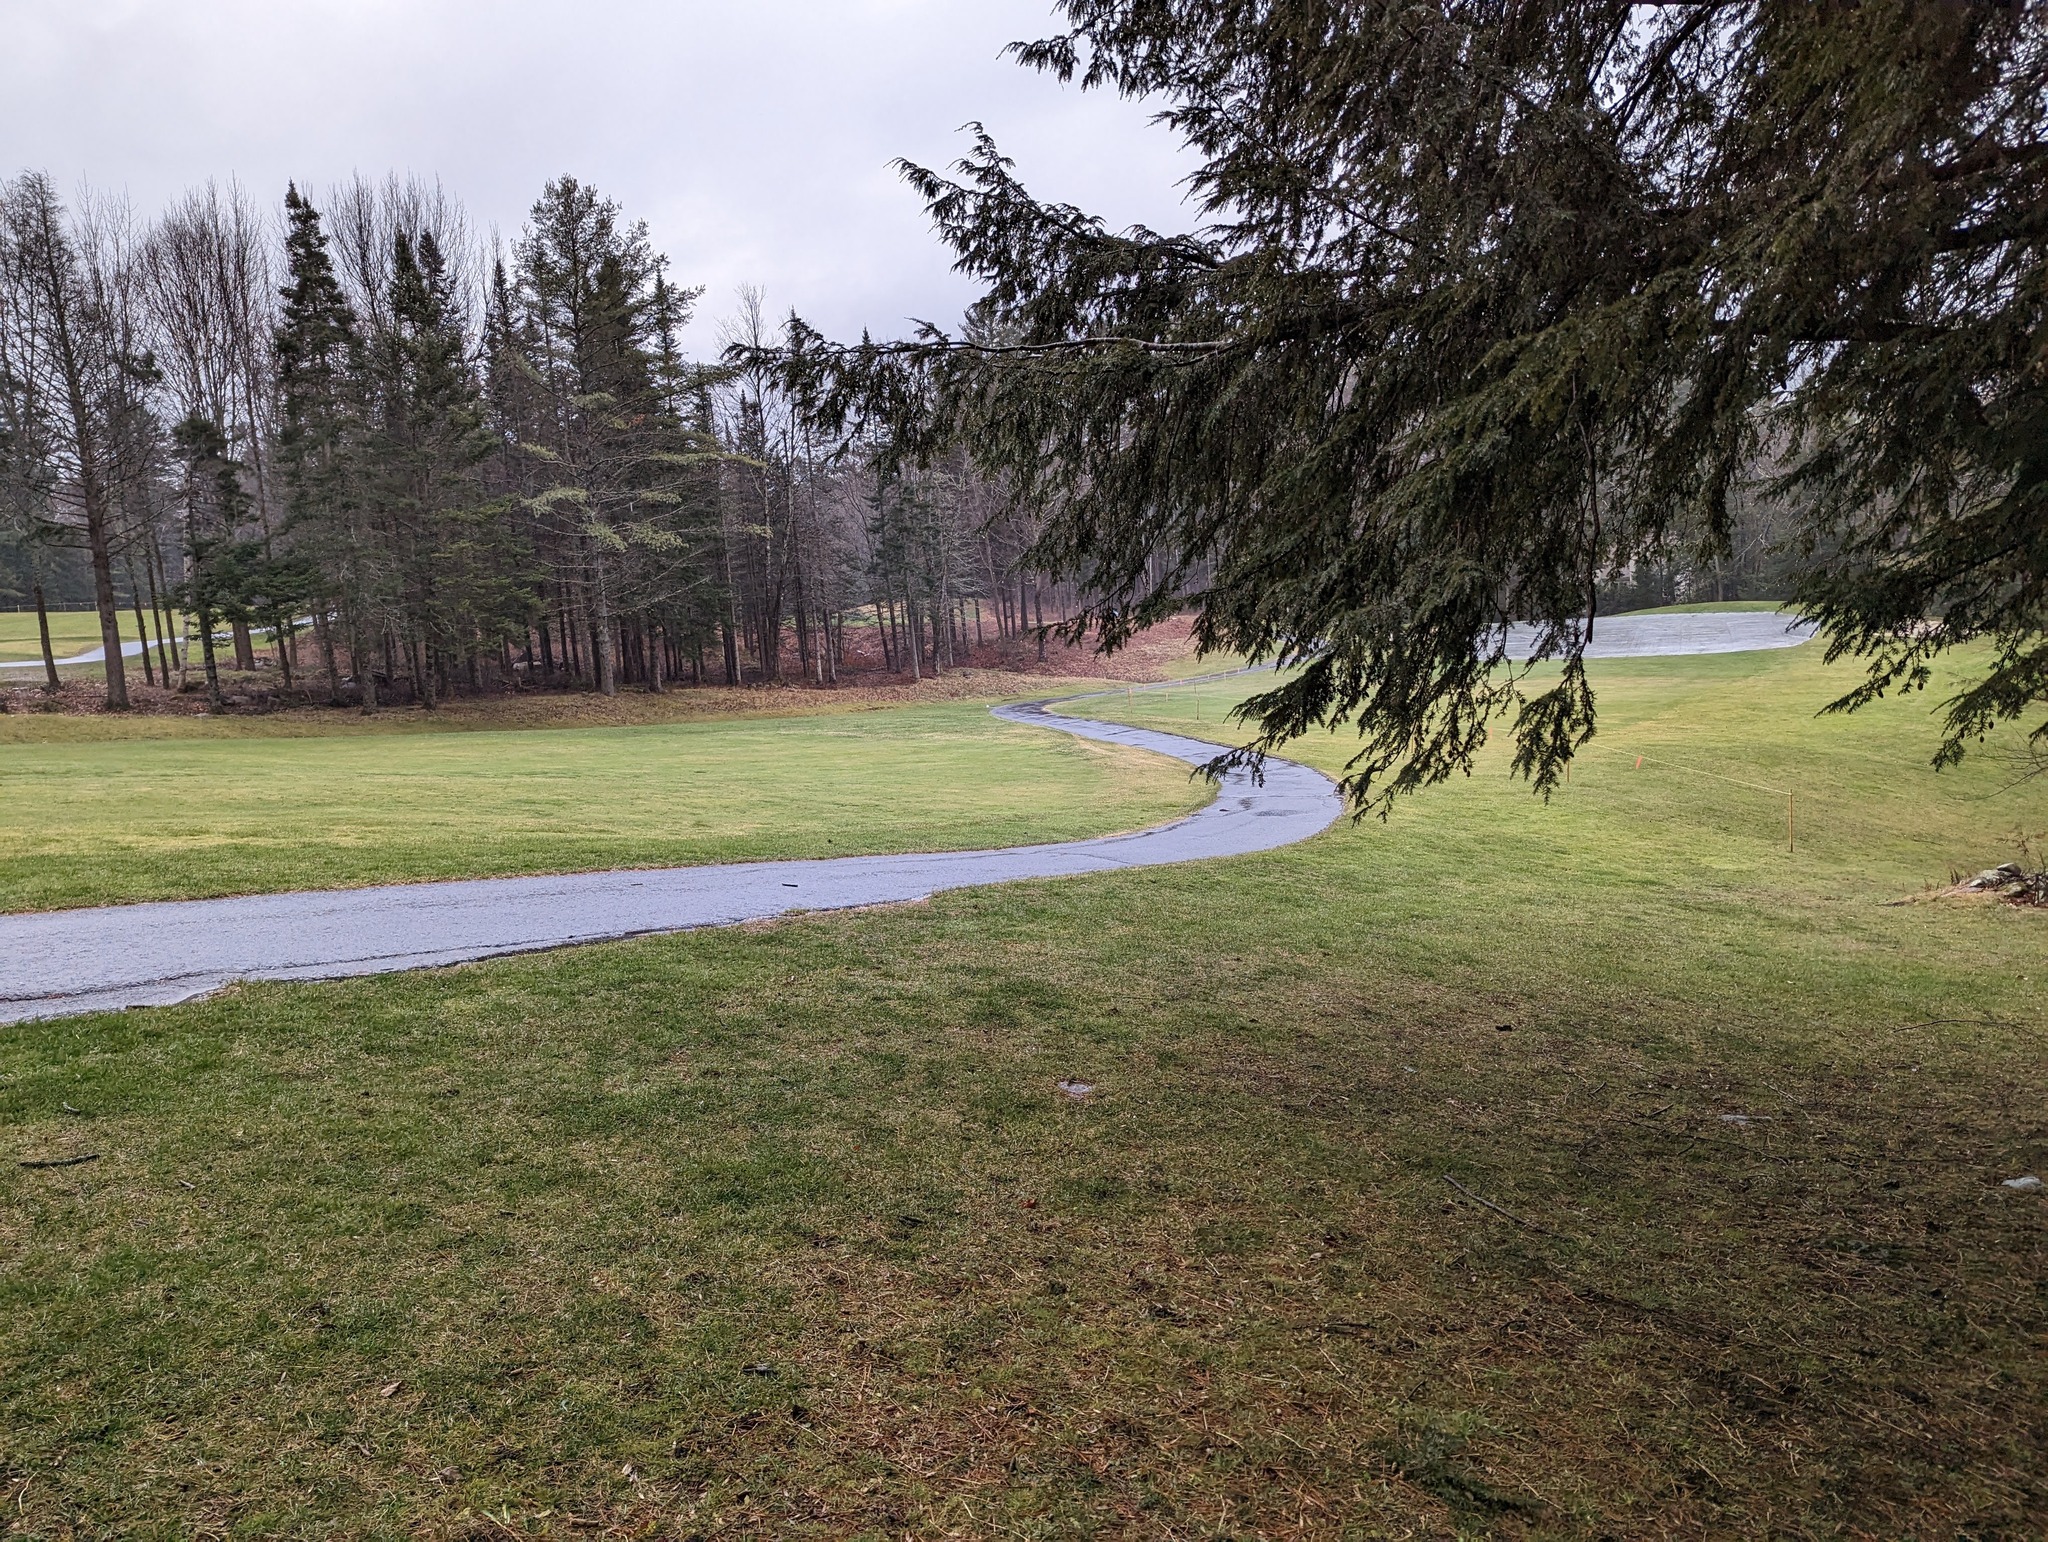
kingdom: Plantae
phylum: Tracheophyta
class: Pinopsida
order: Pinales
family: Pinaceae
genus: Tsuga
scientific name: Tsuga canadensis
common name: Eastern hemlock
